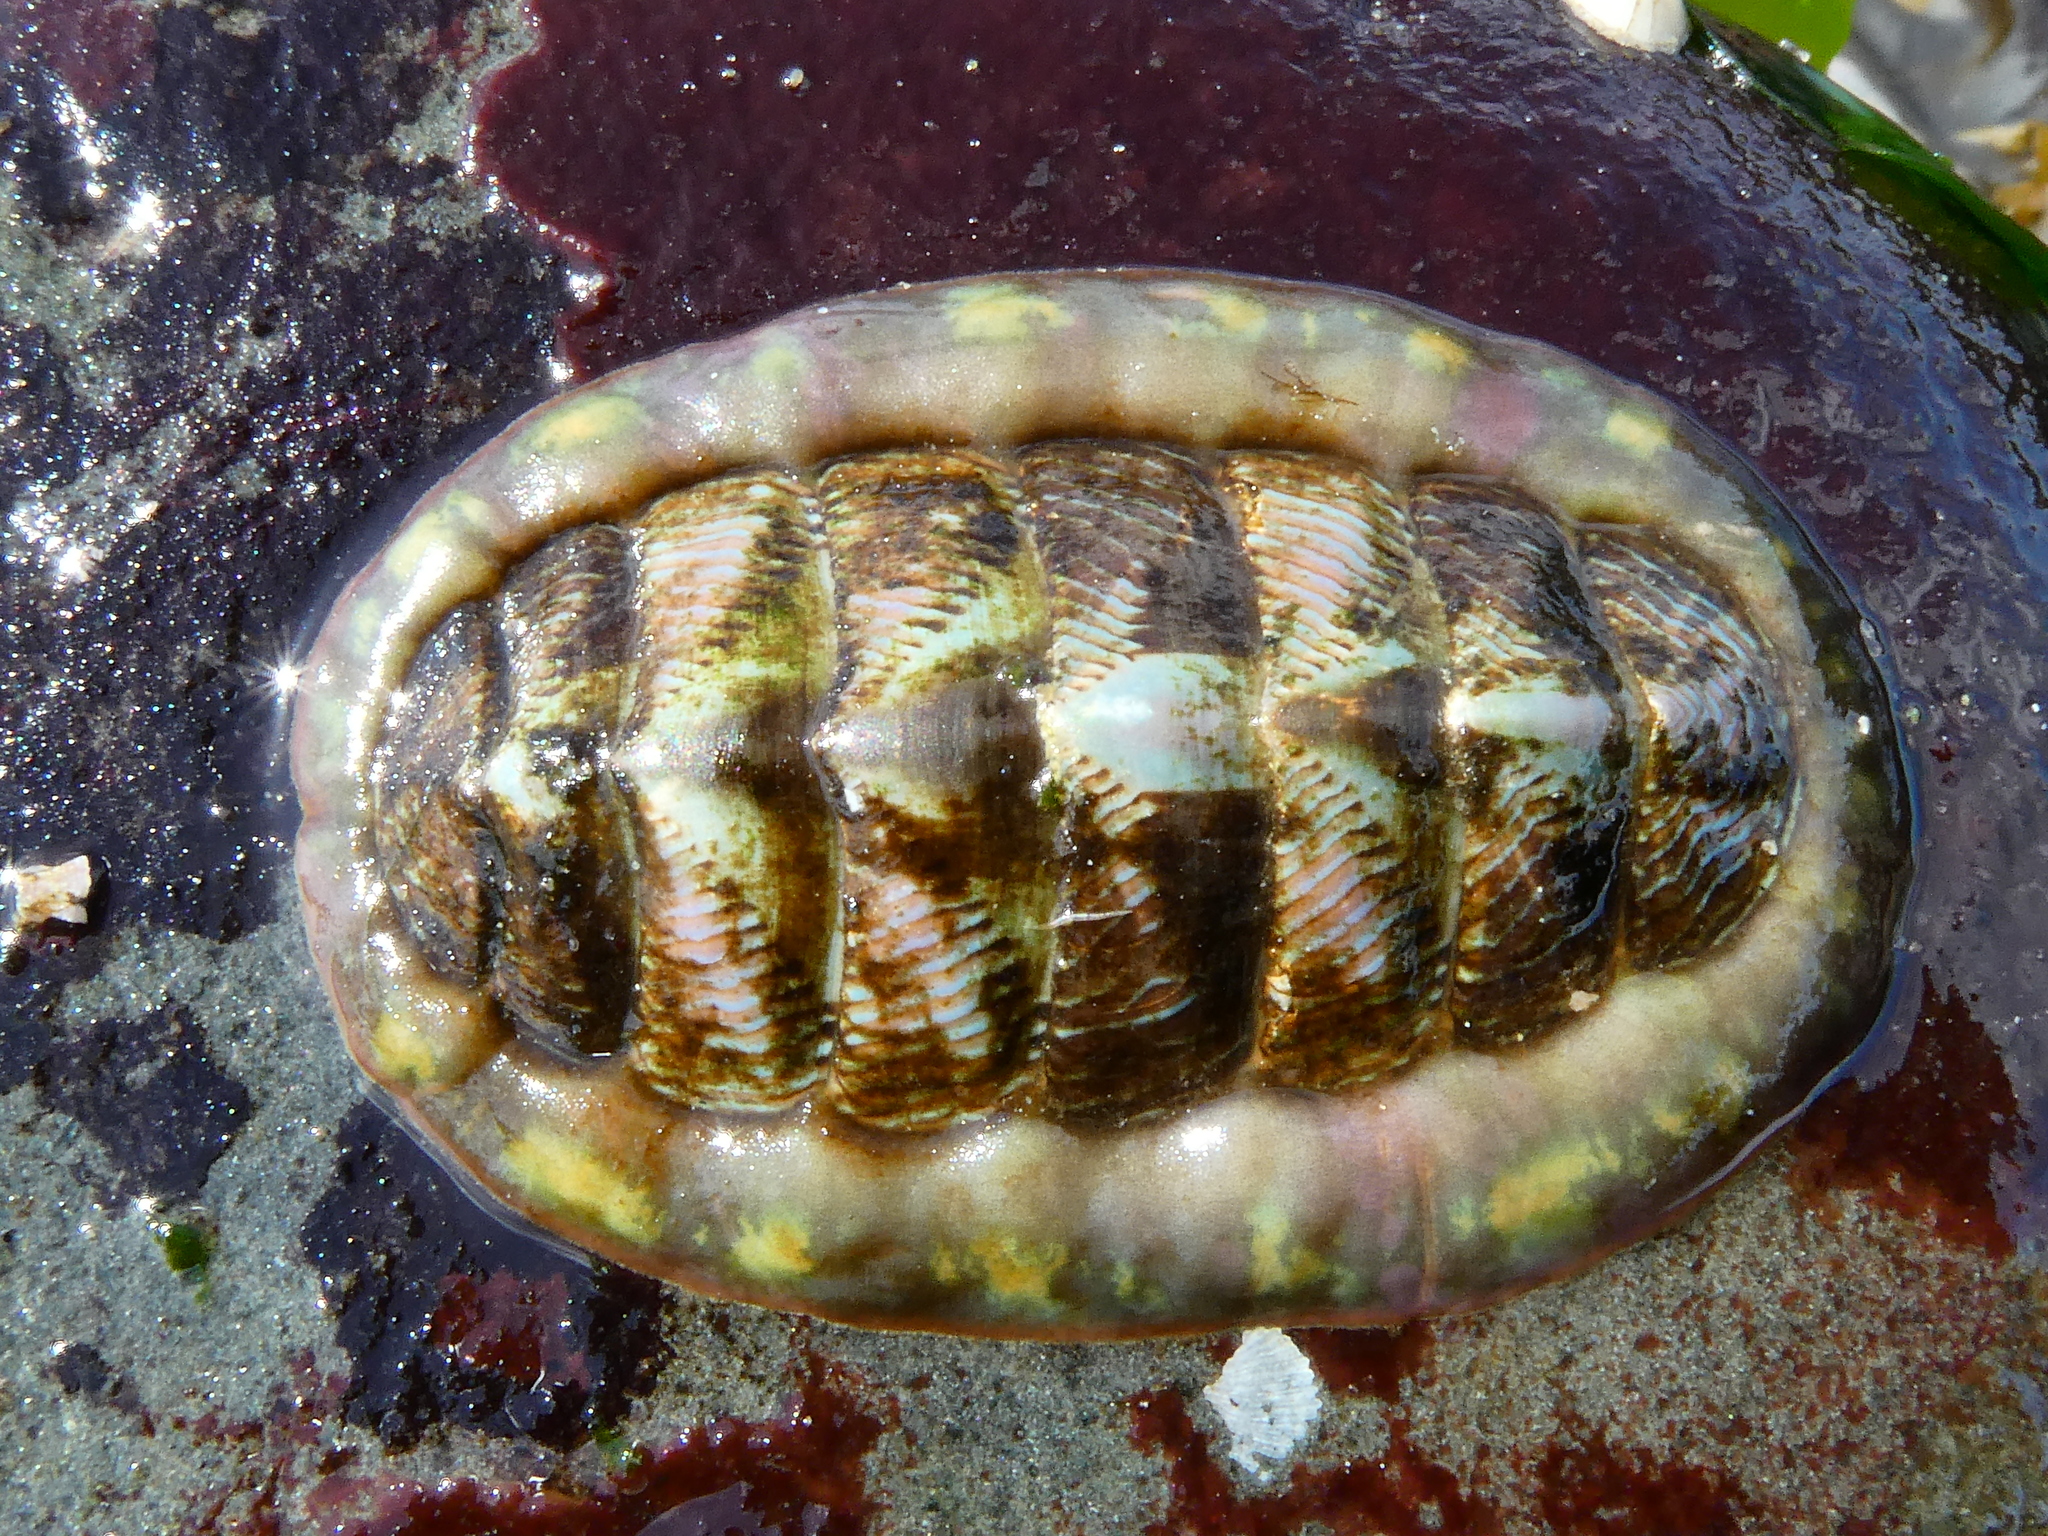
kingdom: Animalia
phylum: Mollusca
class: Polyplacophora
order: Chitonida
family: Tonicellidae
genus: Tonicella
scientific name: Tonicella lineata
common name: Lined chiton
